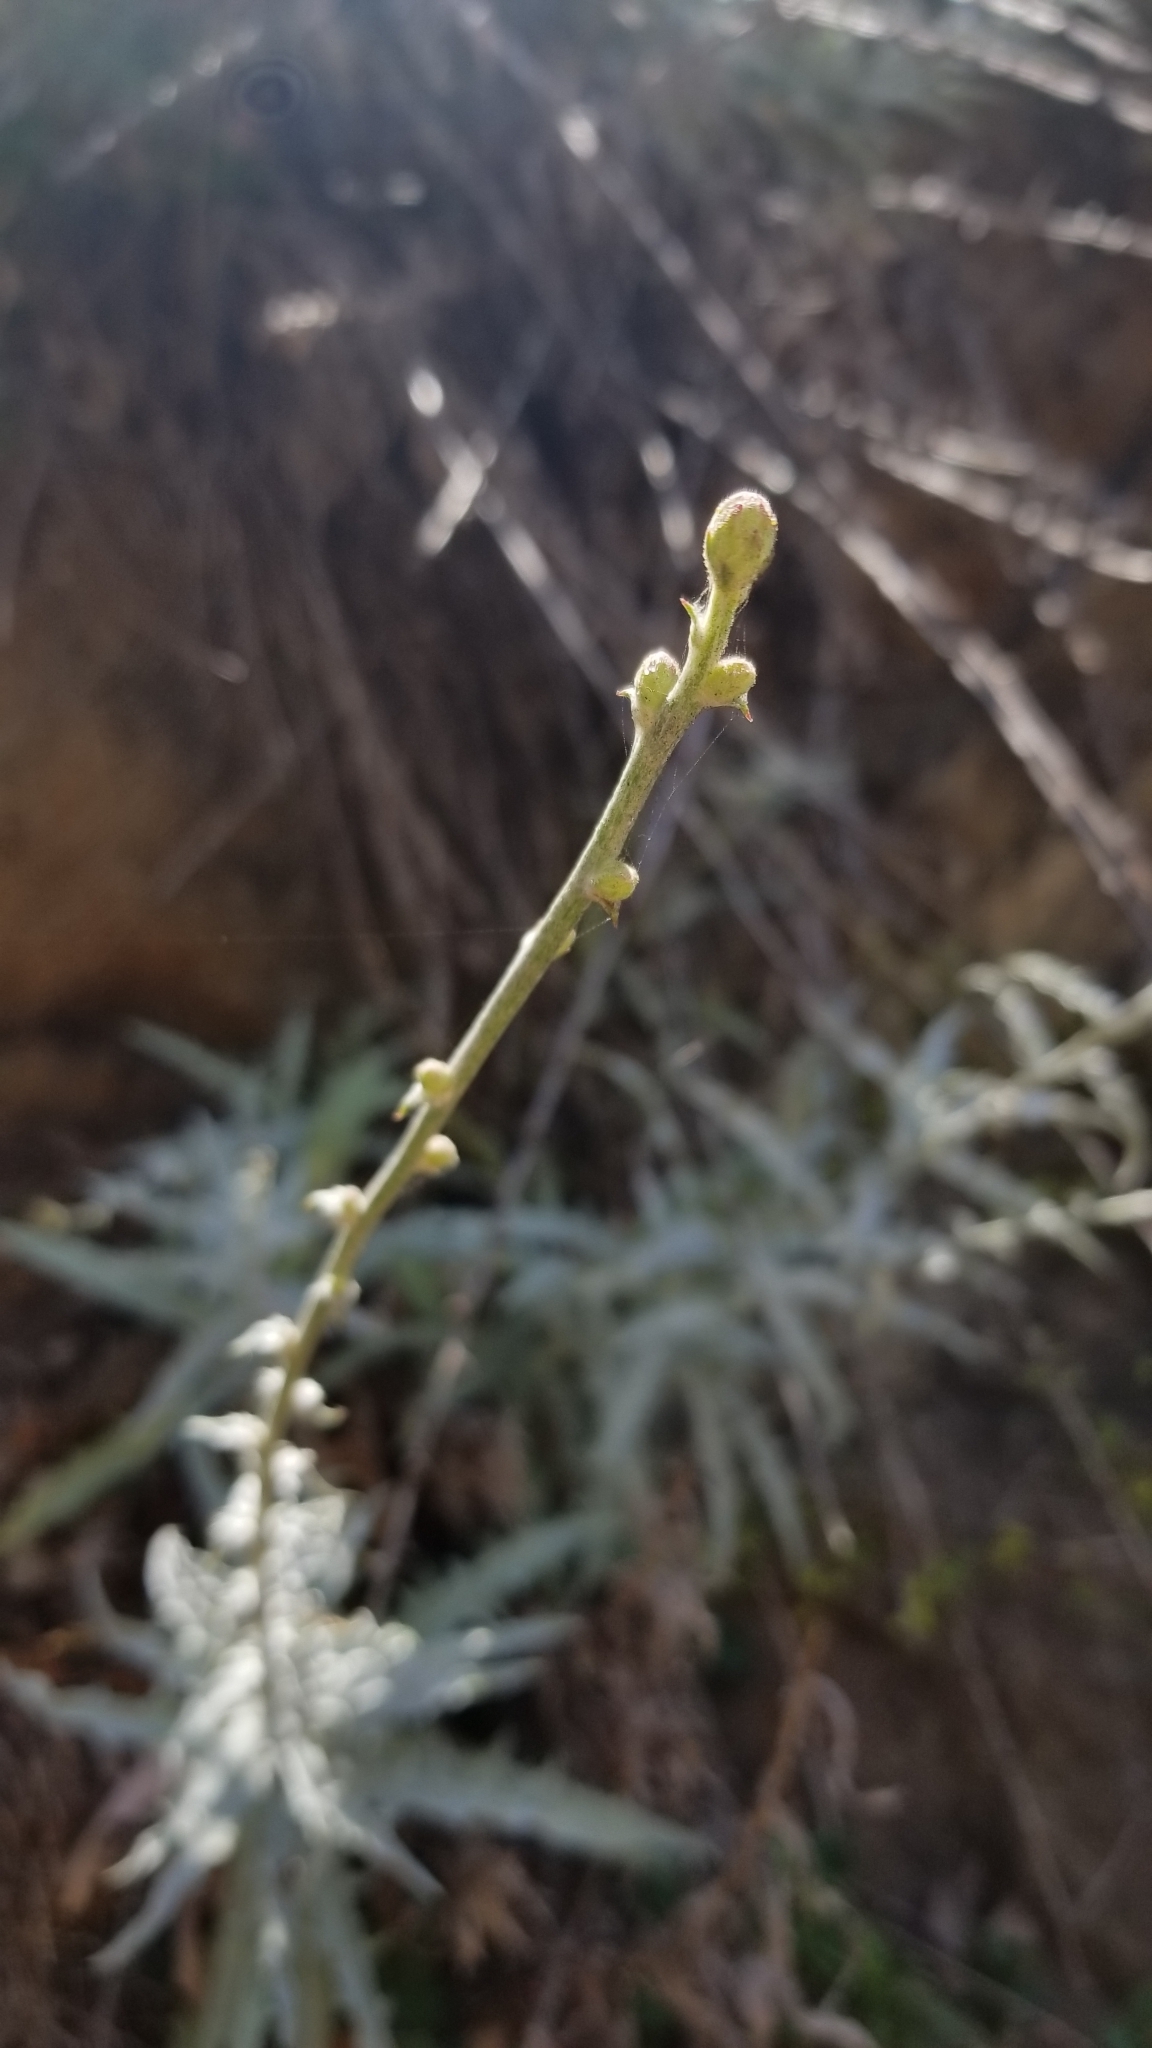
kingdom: Plantae
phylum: Tracheophyta
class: Magnoliopsida
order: Asterales
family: Asteraceae
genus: Stephanomeria
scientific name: Stephanomeria cichoriacea
